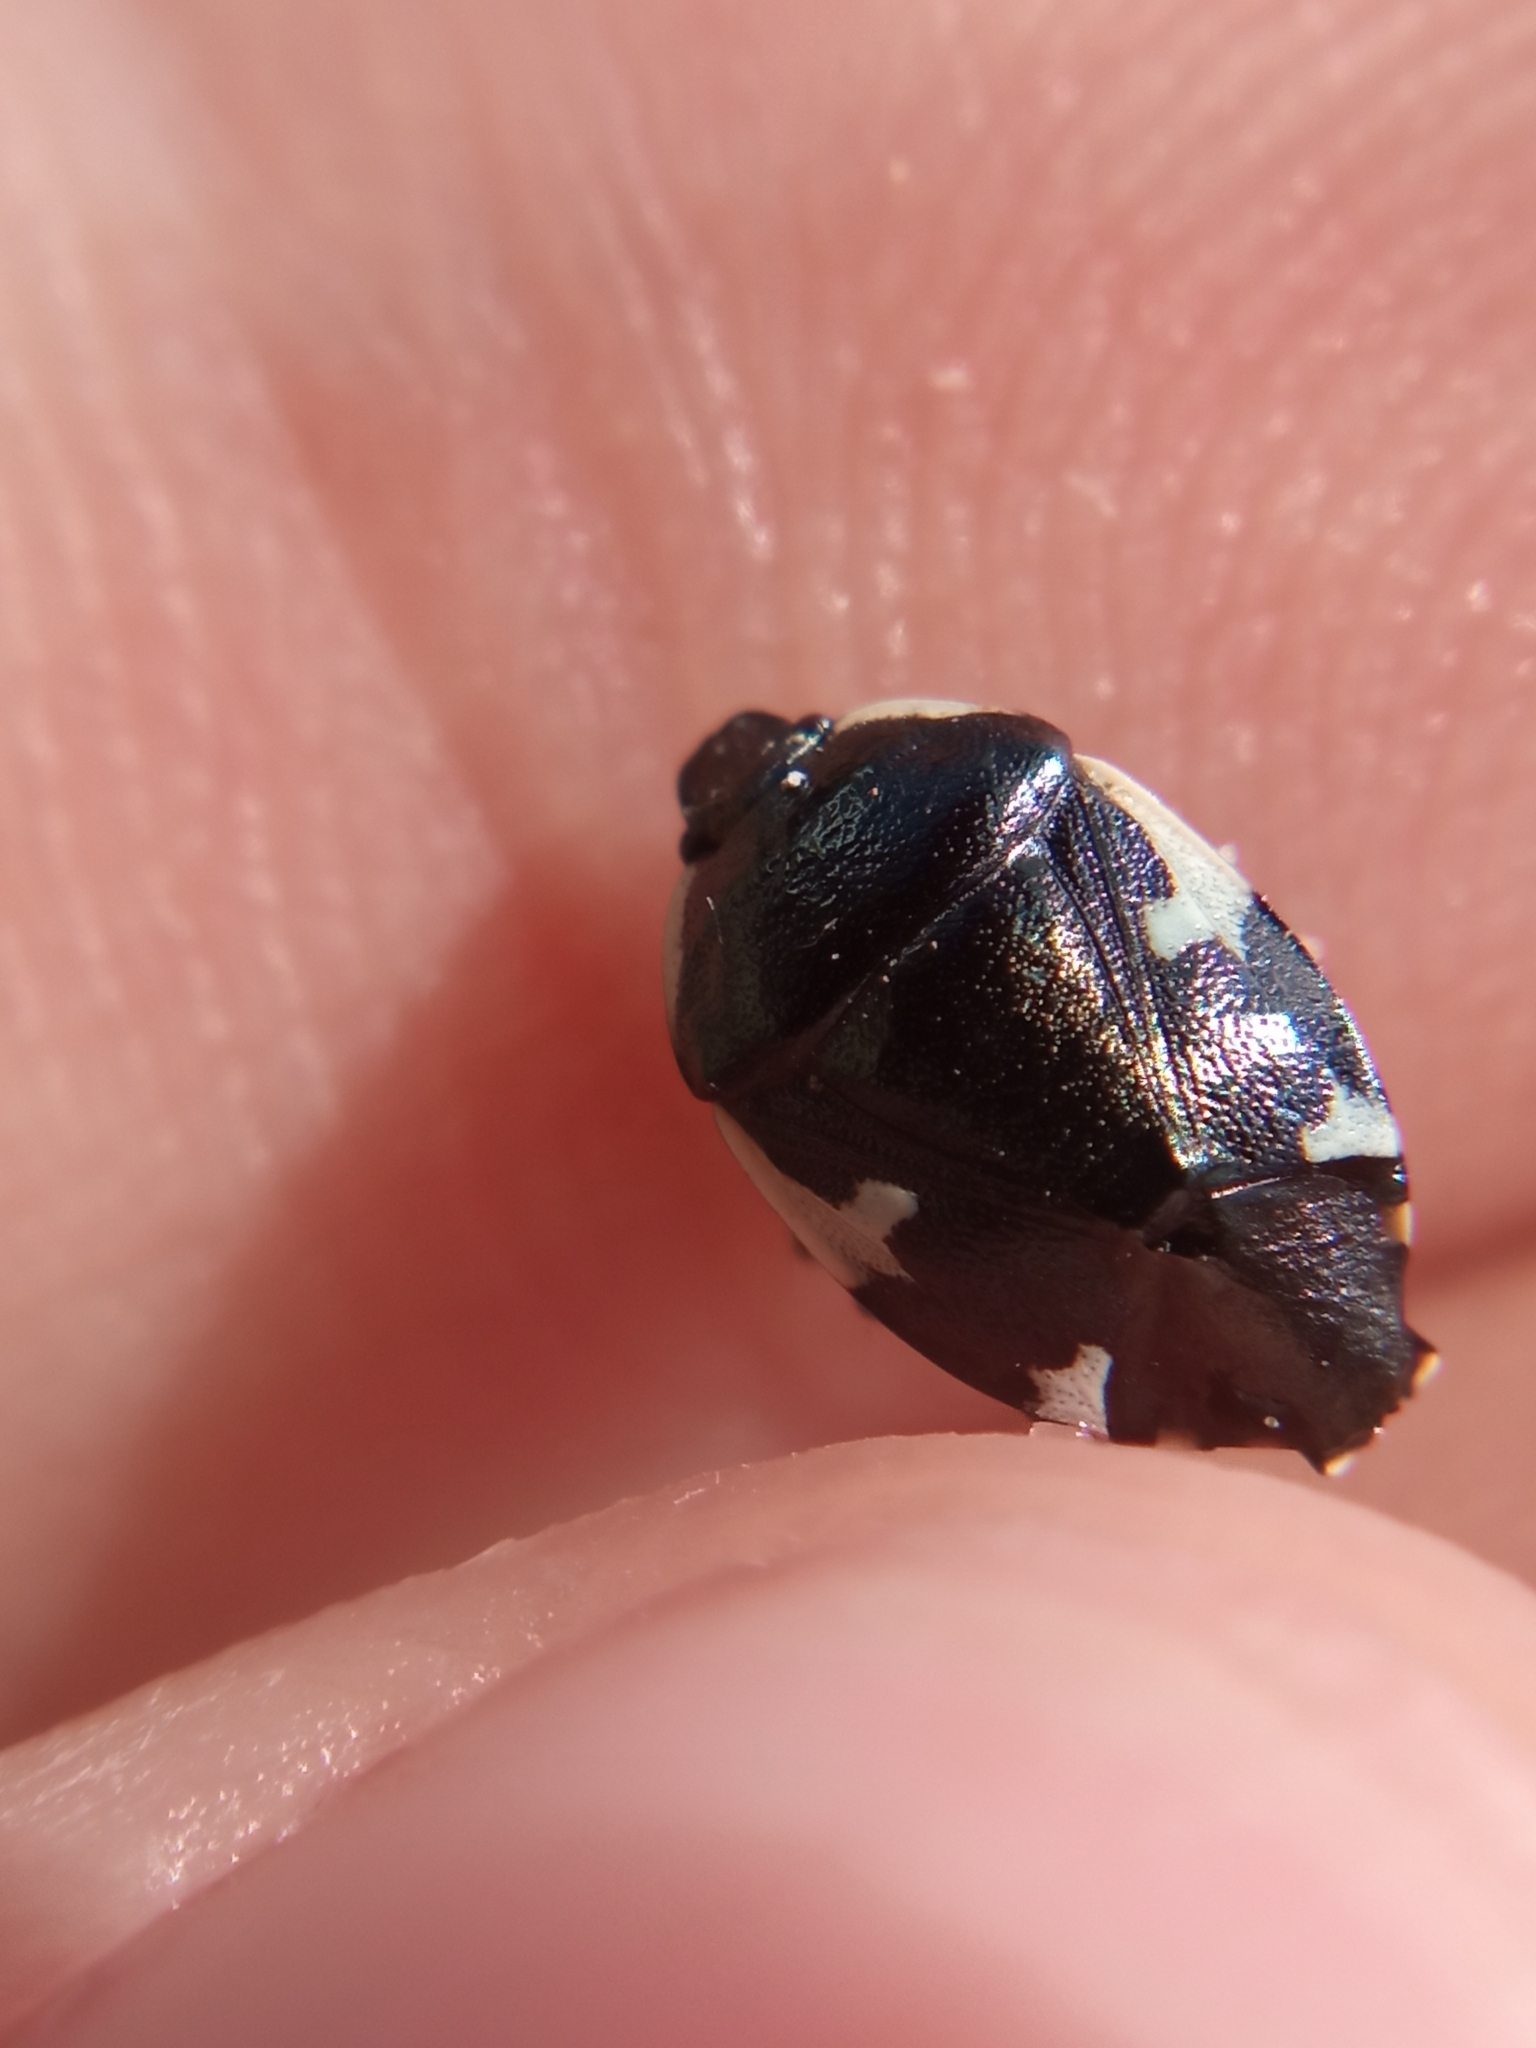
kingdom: Animalia
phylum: Arthropoda
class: Insecta
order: Hemiptera
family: Cydnidae
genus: Tritomegas
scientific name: Tritomegas sexmaculatus
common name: Rambur's pied shieldbug
